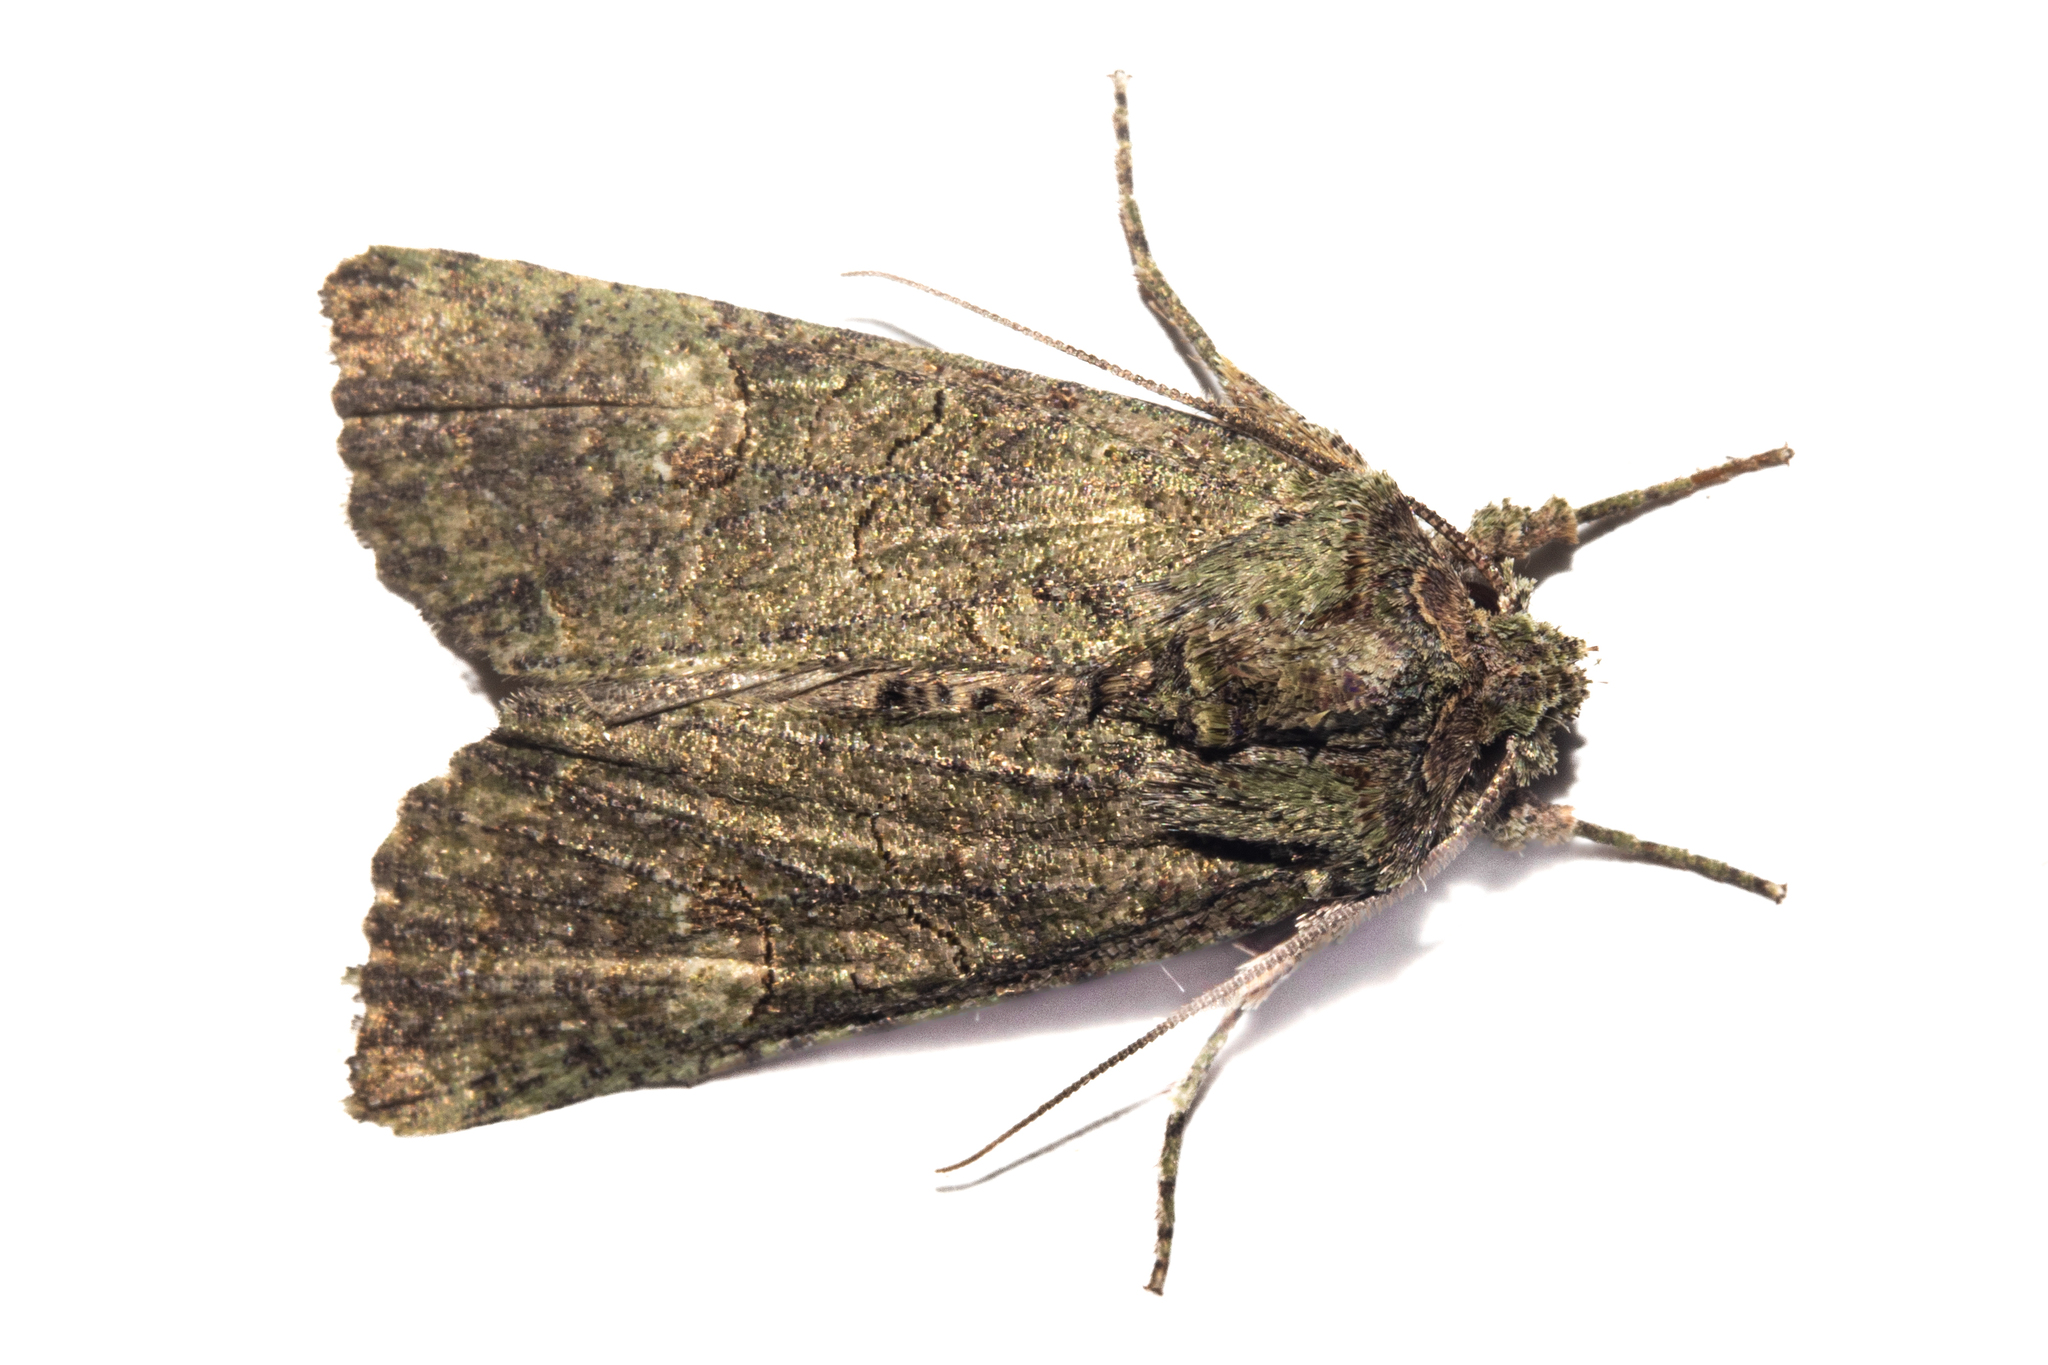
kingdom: Animalia
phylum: Arthropoda
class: Insecta
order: Lepidoptera
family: Noctuidae
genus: Meterana
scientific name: Meterana levis
